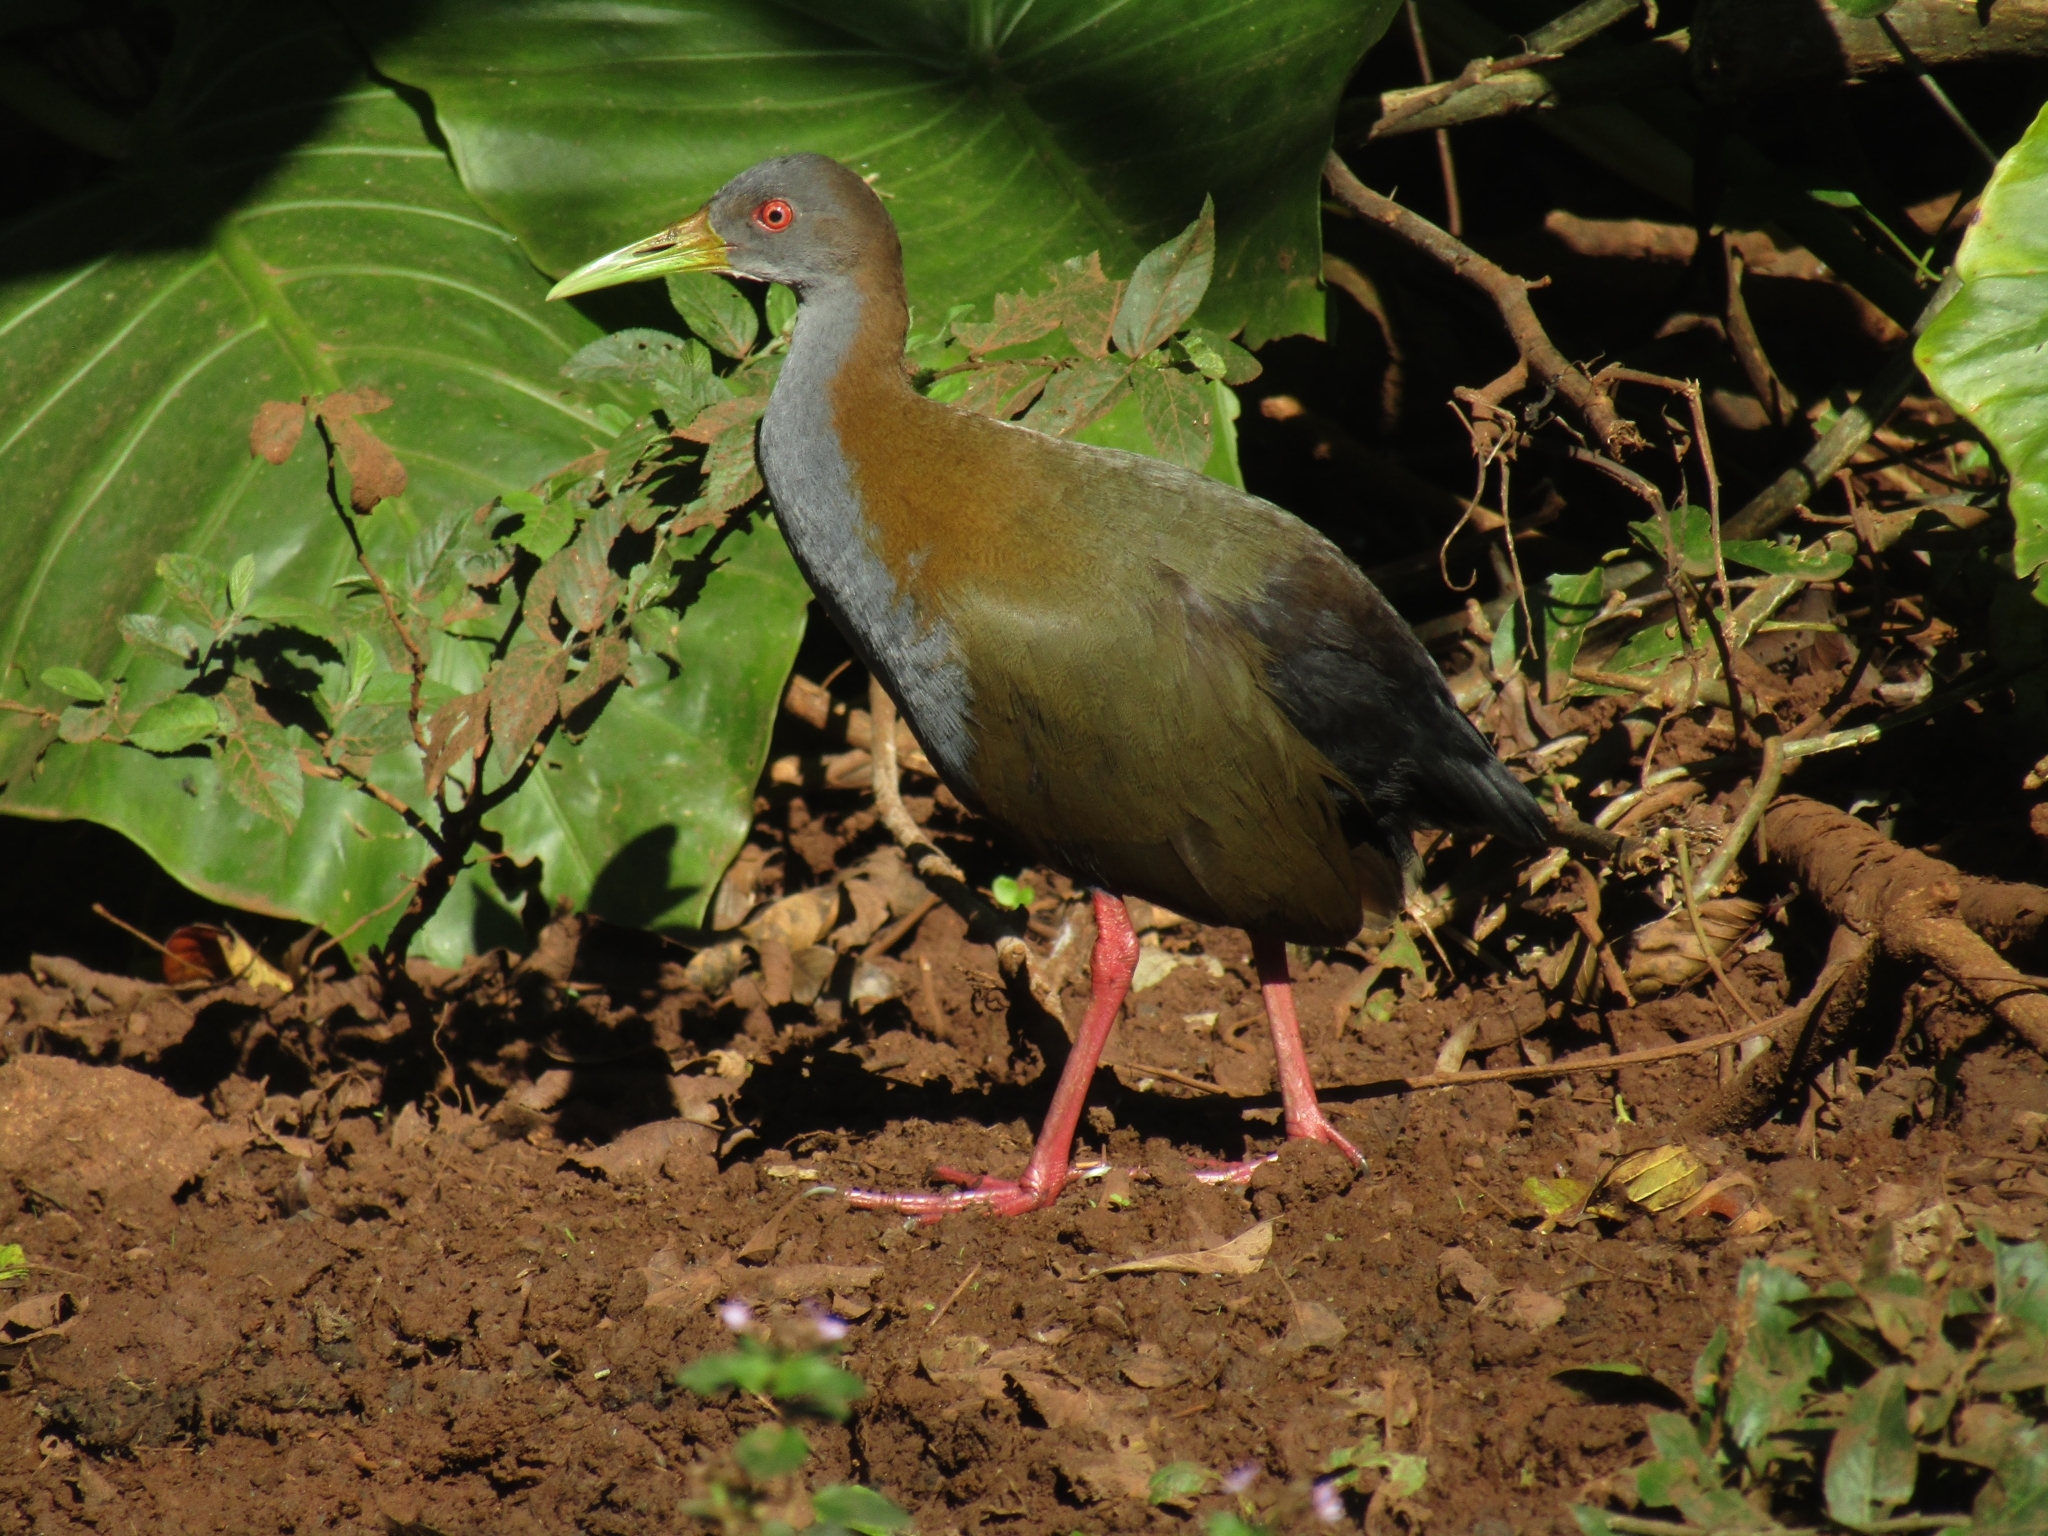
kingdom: Animalia
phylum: Chordata
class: Aves
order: Gruiformes
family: Rallidae
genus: Aramides
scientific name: Aramides ypecaha
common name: Giant wood rail
